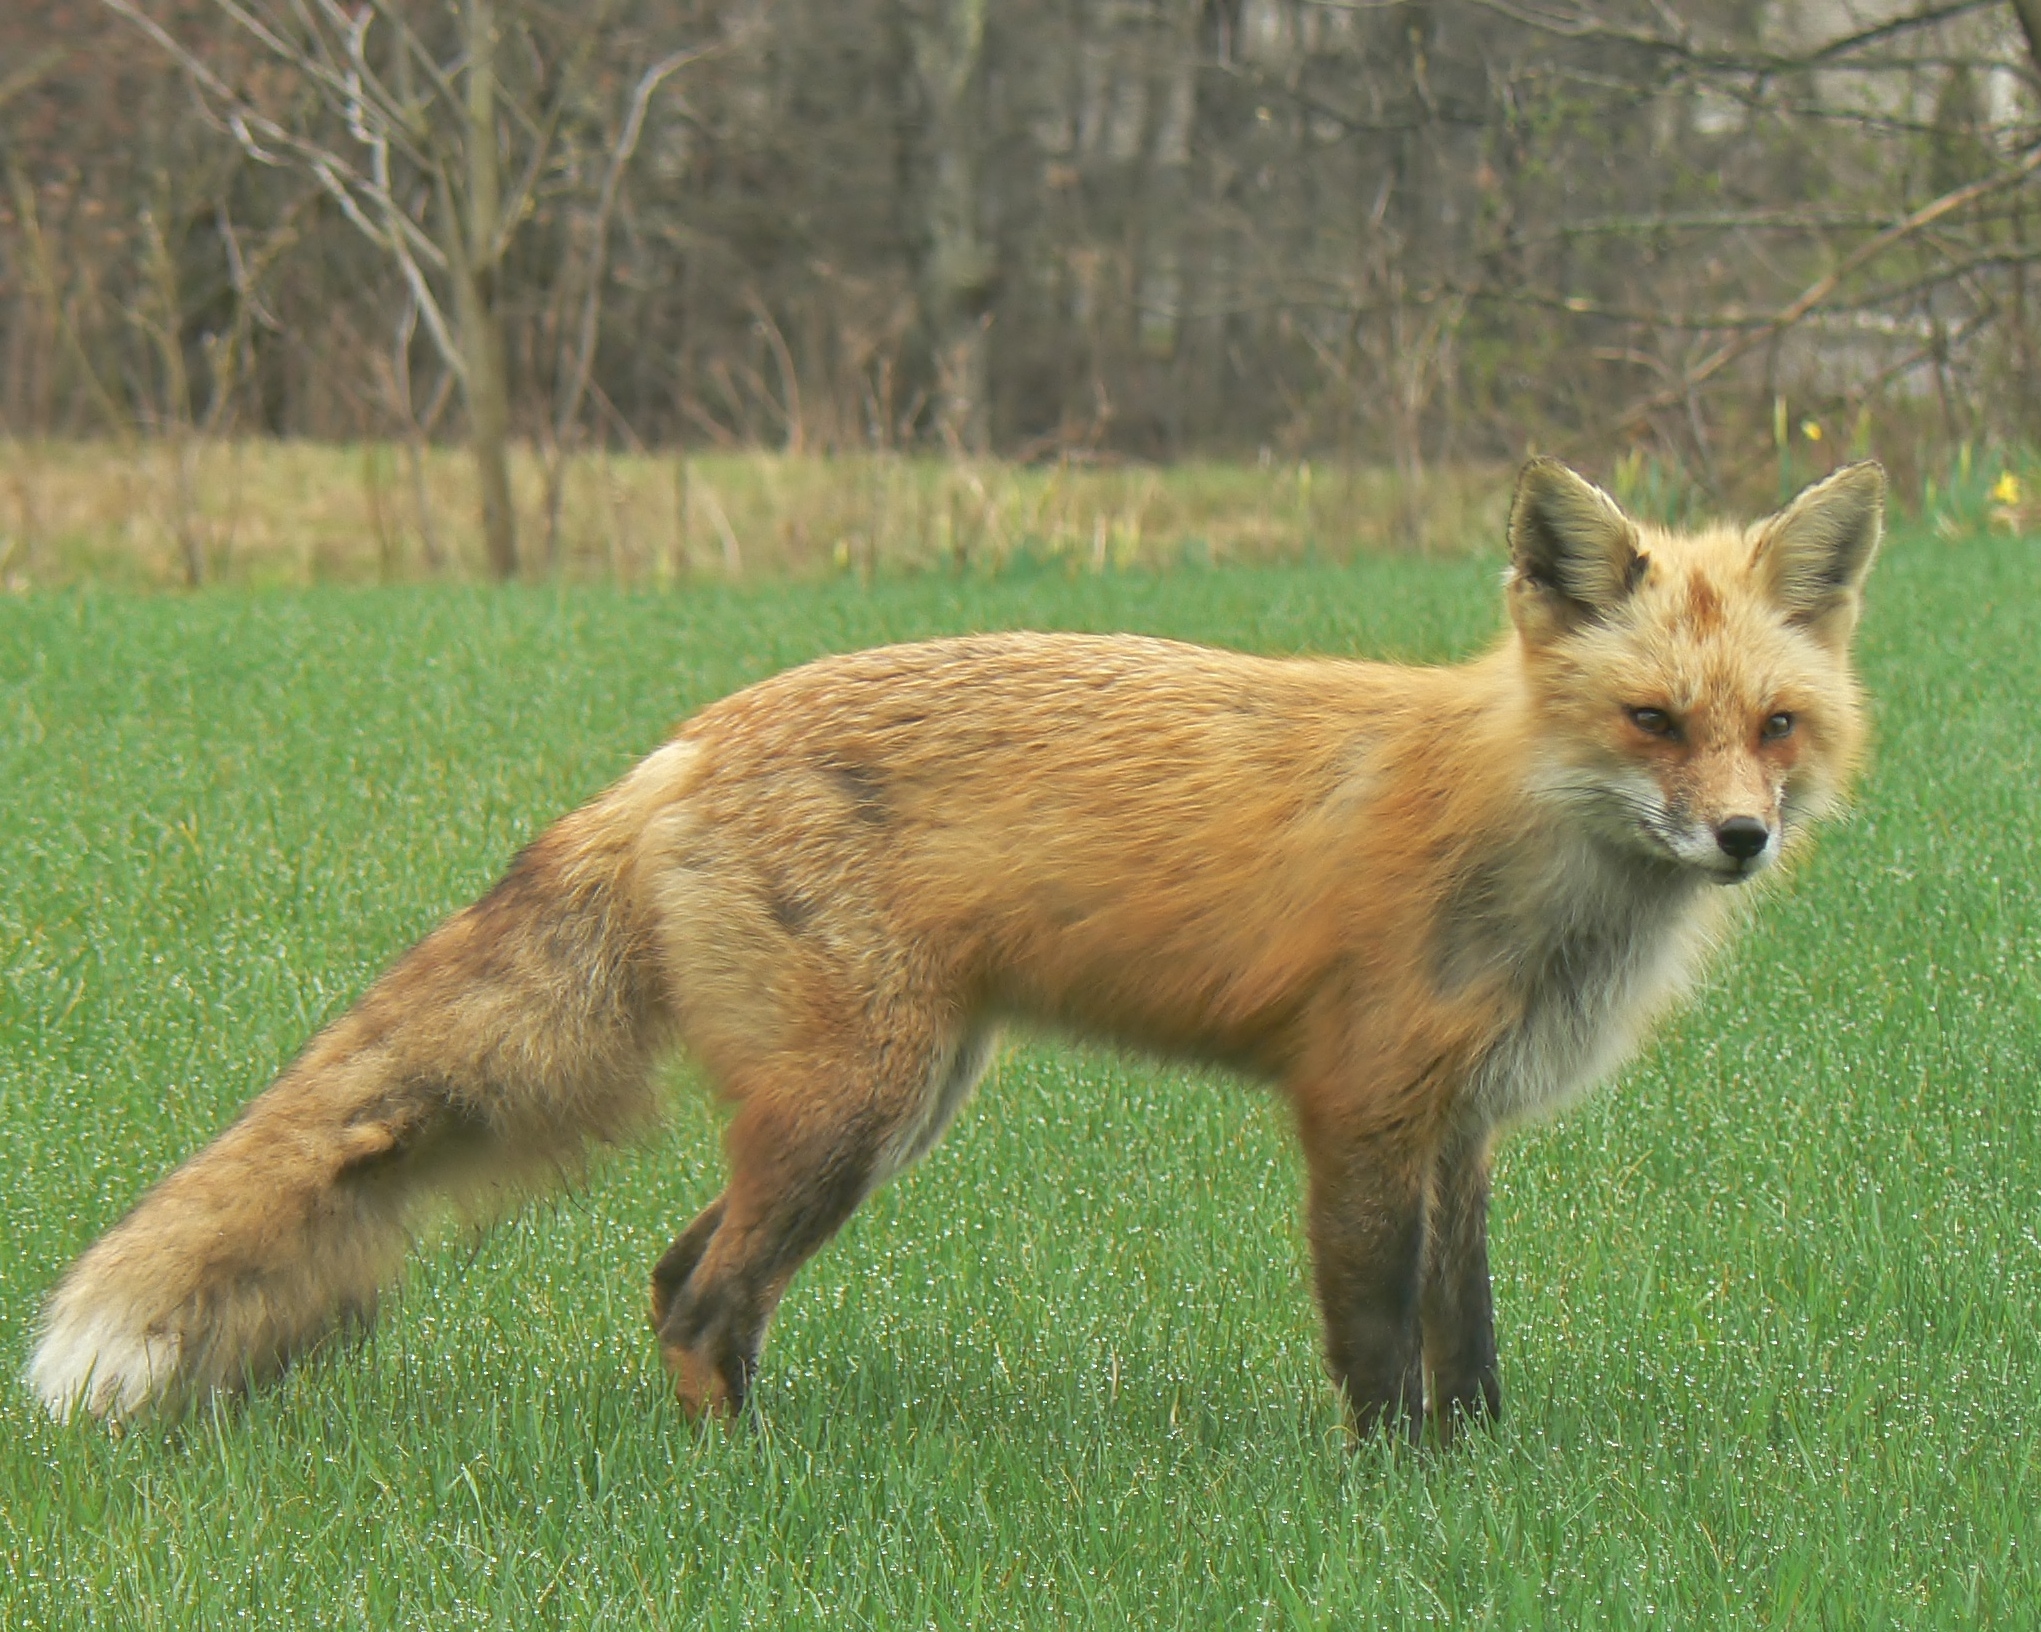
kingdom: Animalia
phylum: Chordata
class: Mammalia
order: Carnivora
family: Canidae
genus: Vulpes
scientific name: Vulpes vulpes
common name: Red fox
